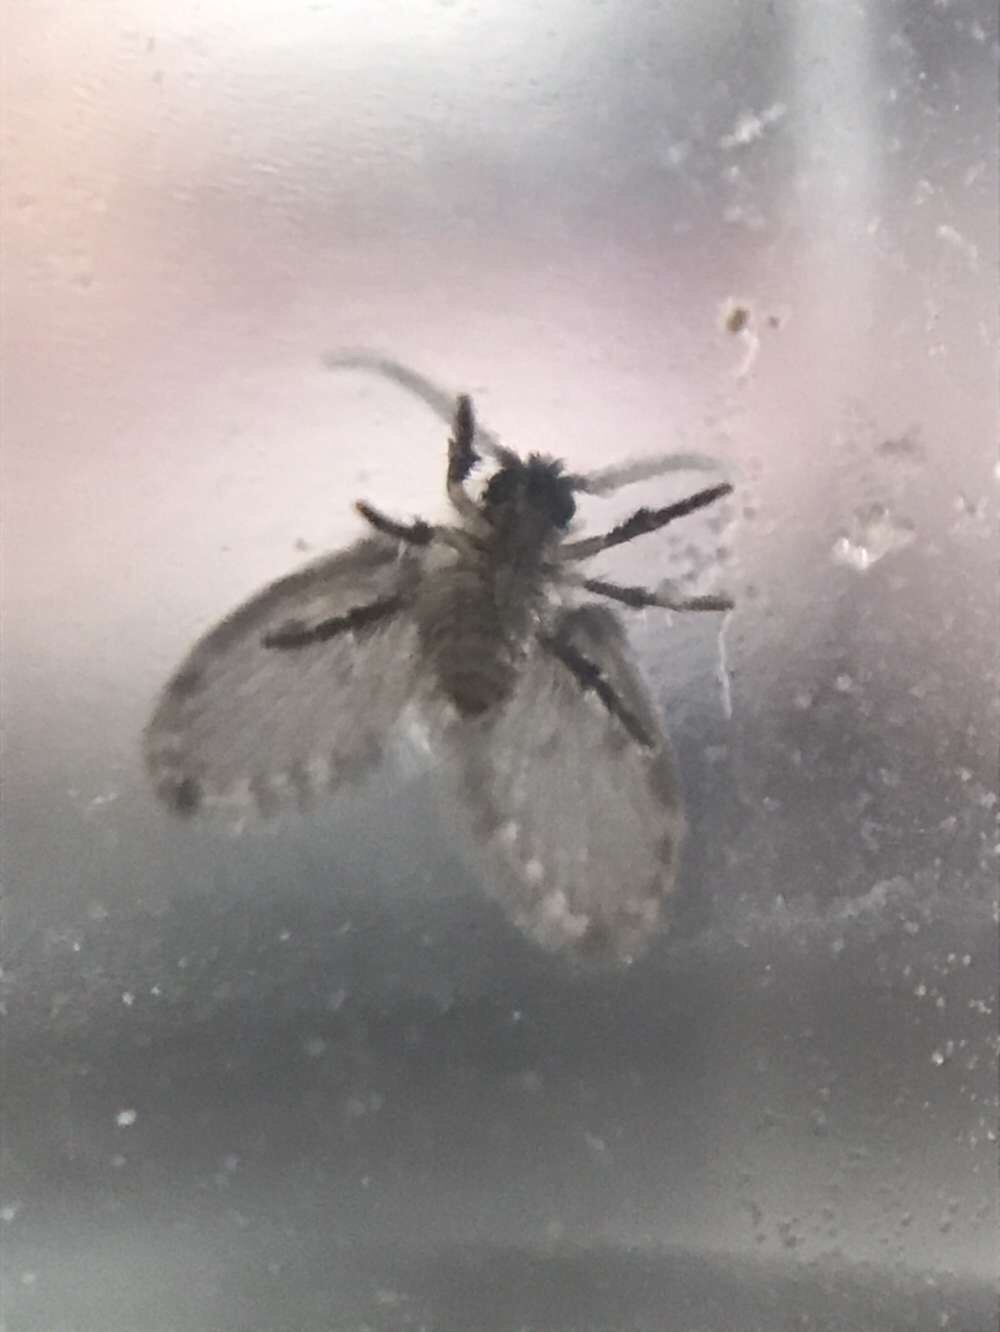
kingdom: Animalia
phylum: Arthropoda
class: Insecta
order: Diptera
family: Psychodidae
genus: Clogmia
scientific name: Clogmia albipunctatus
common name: White-spotted moth fly
